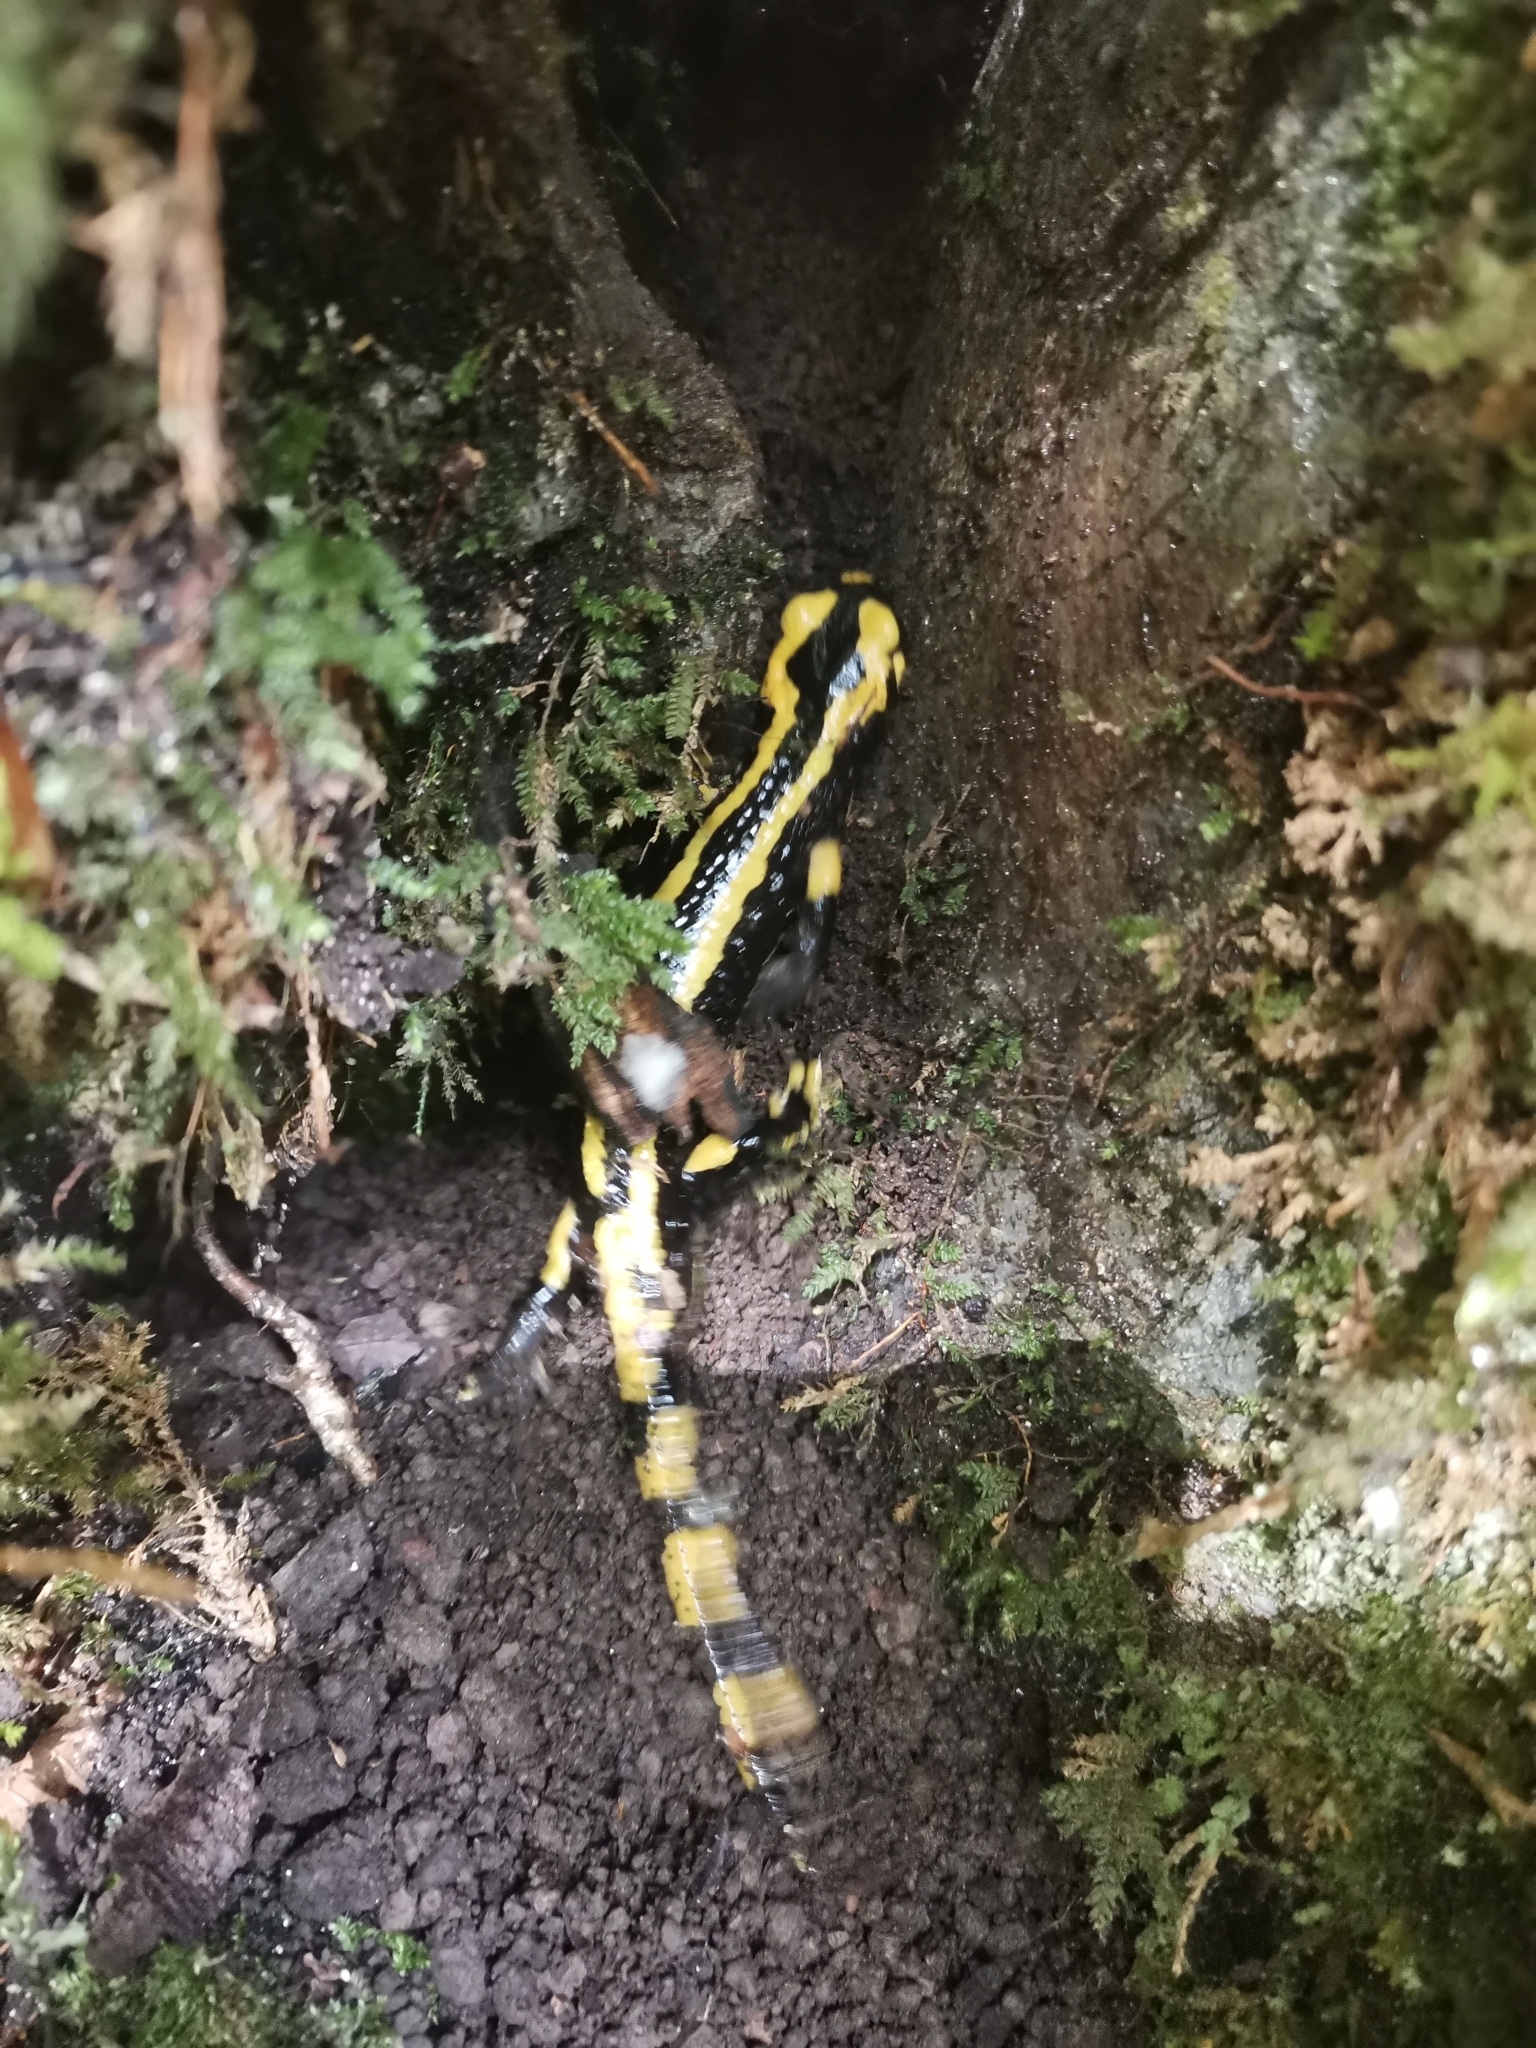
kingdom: Animalia
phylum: Chordata
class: Amphibia
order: Caudata
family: Salamandridae
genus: Salamandra
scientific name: Salamandra salamandra
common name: Fire salamander
